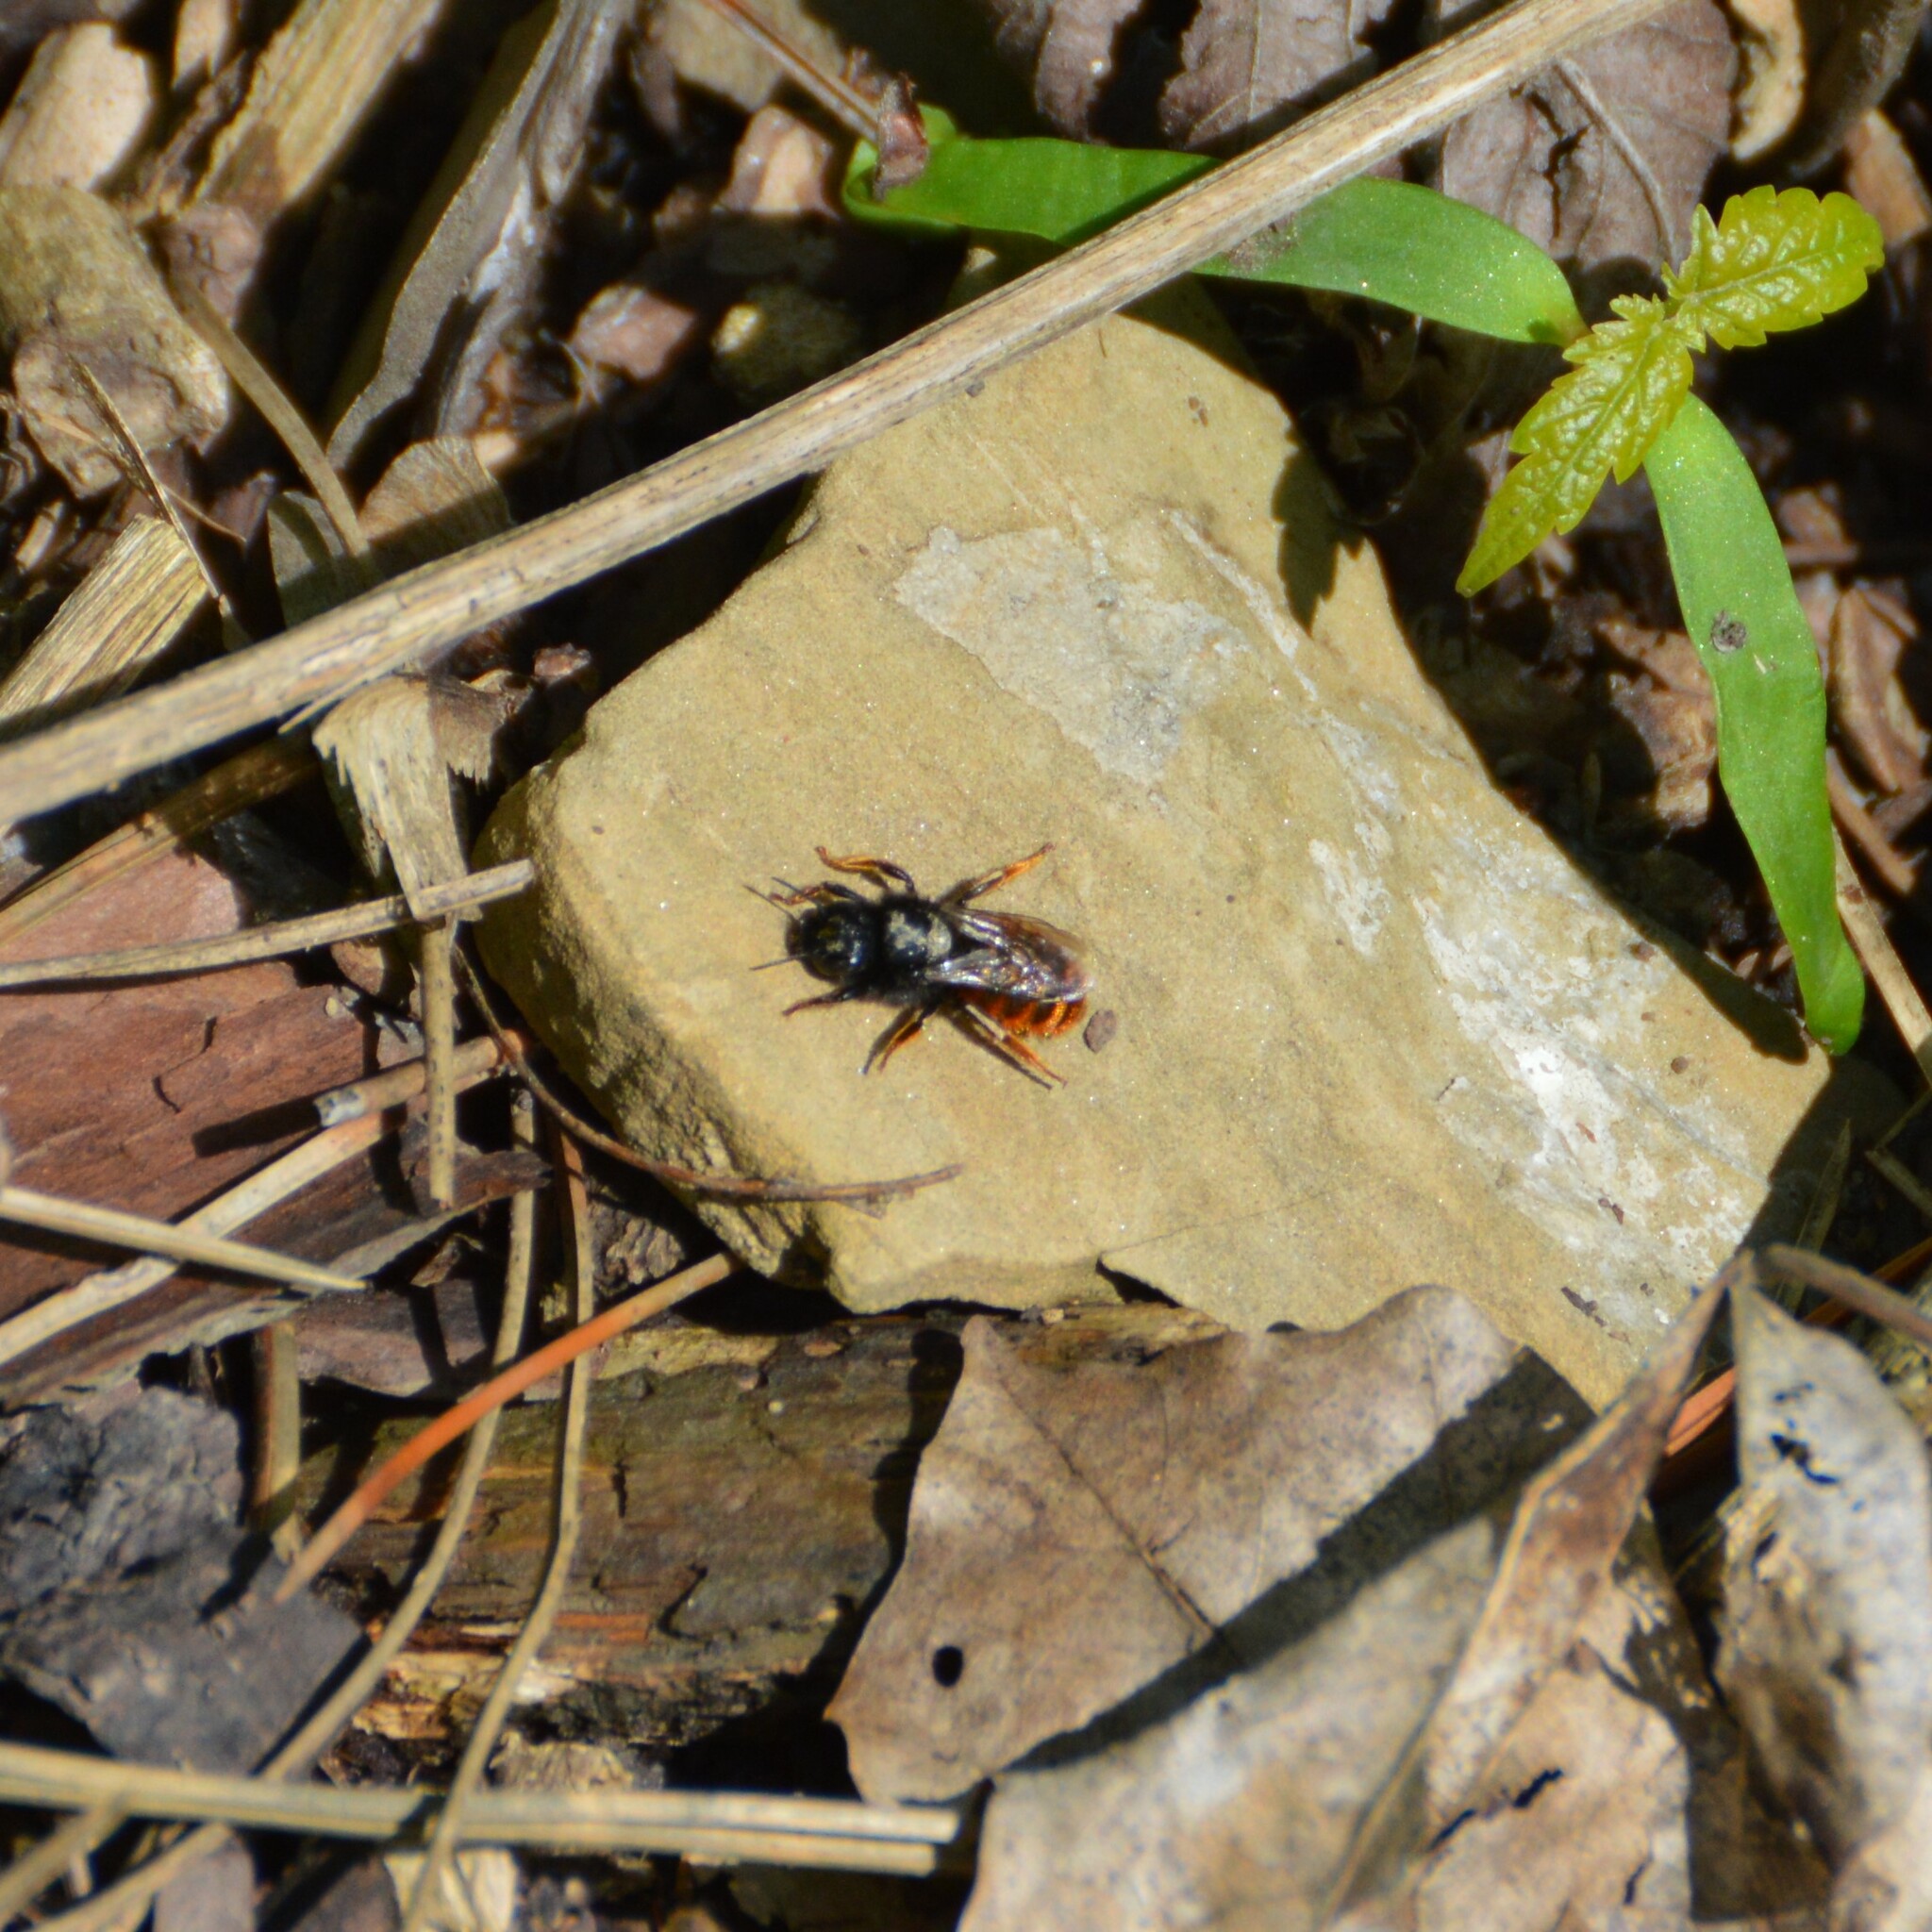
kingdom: Animalia
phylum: Arthropoda
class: Insecta
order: Hymenoptera
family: Megachilidae
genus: Osmia
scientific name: Osmia bicolor
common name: Red-tailed mason bee
